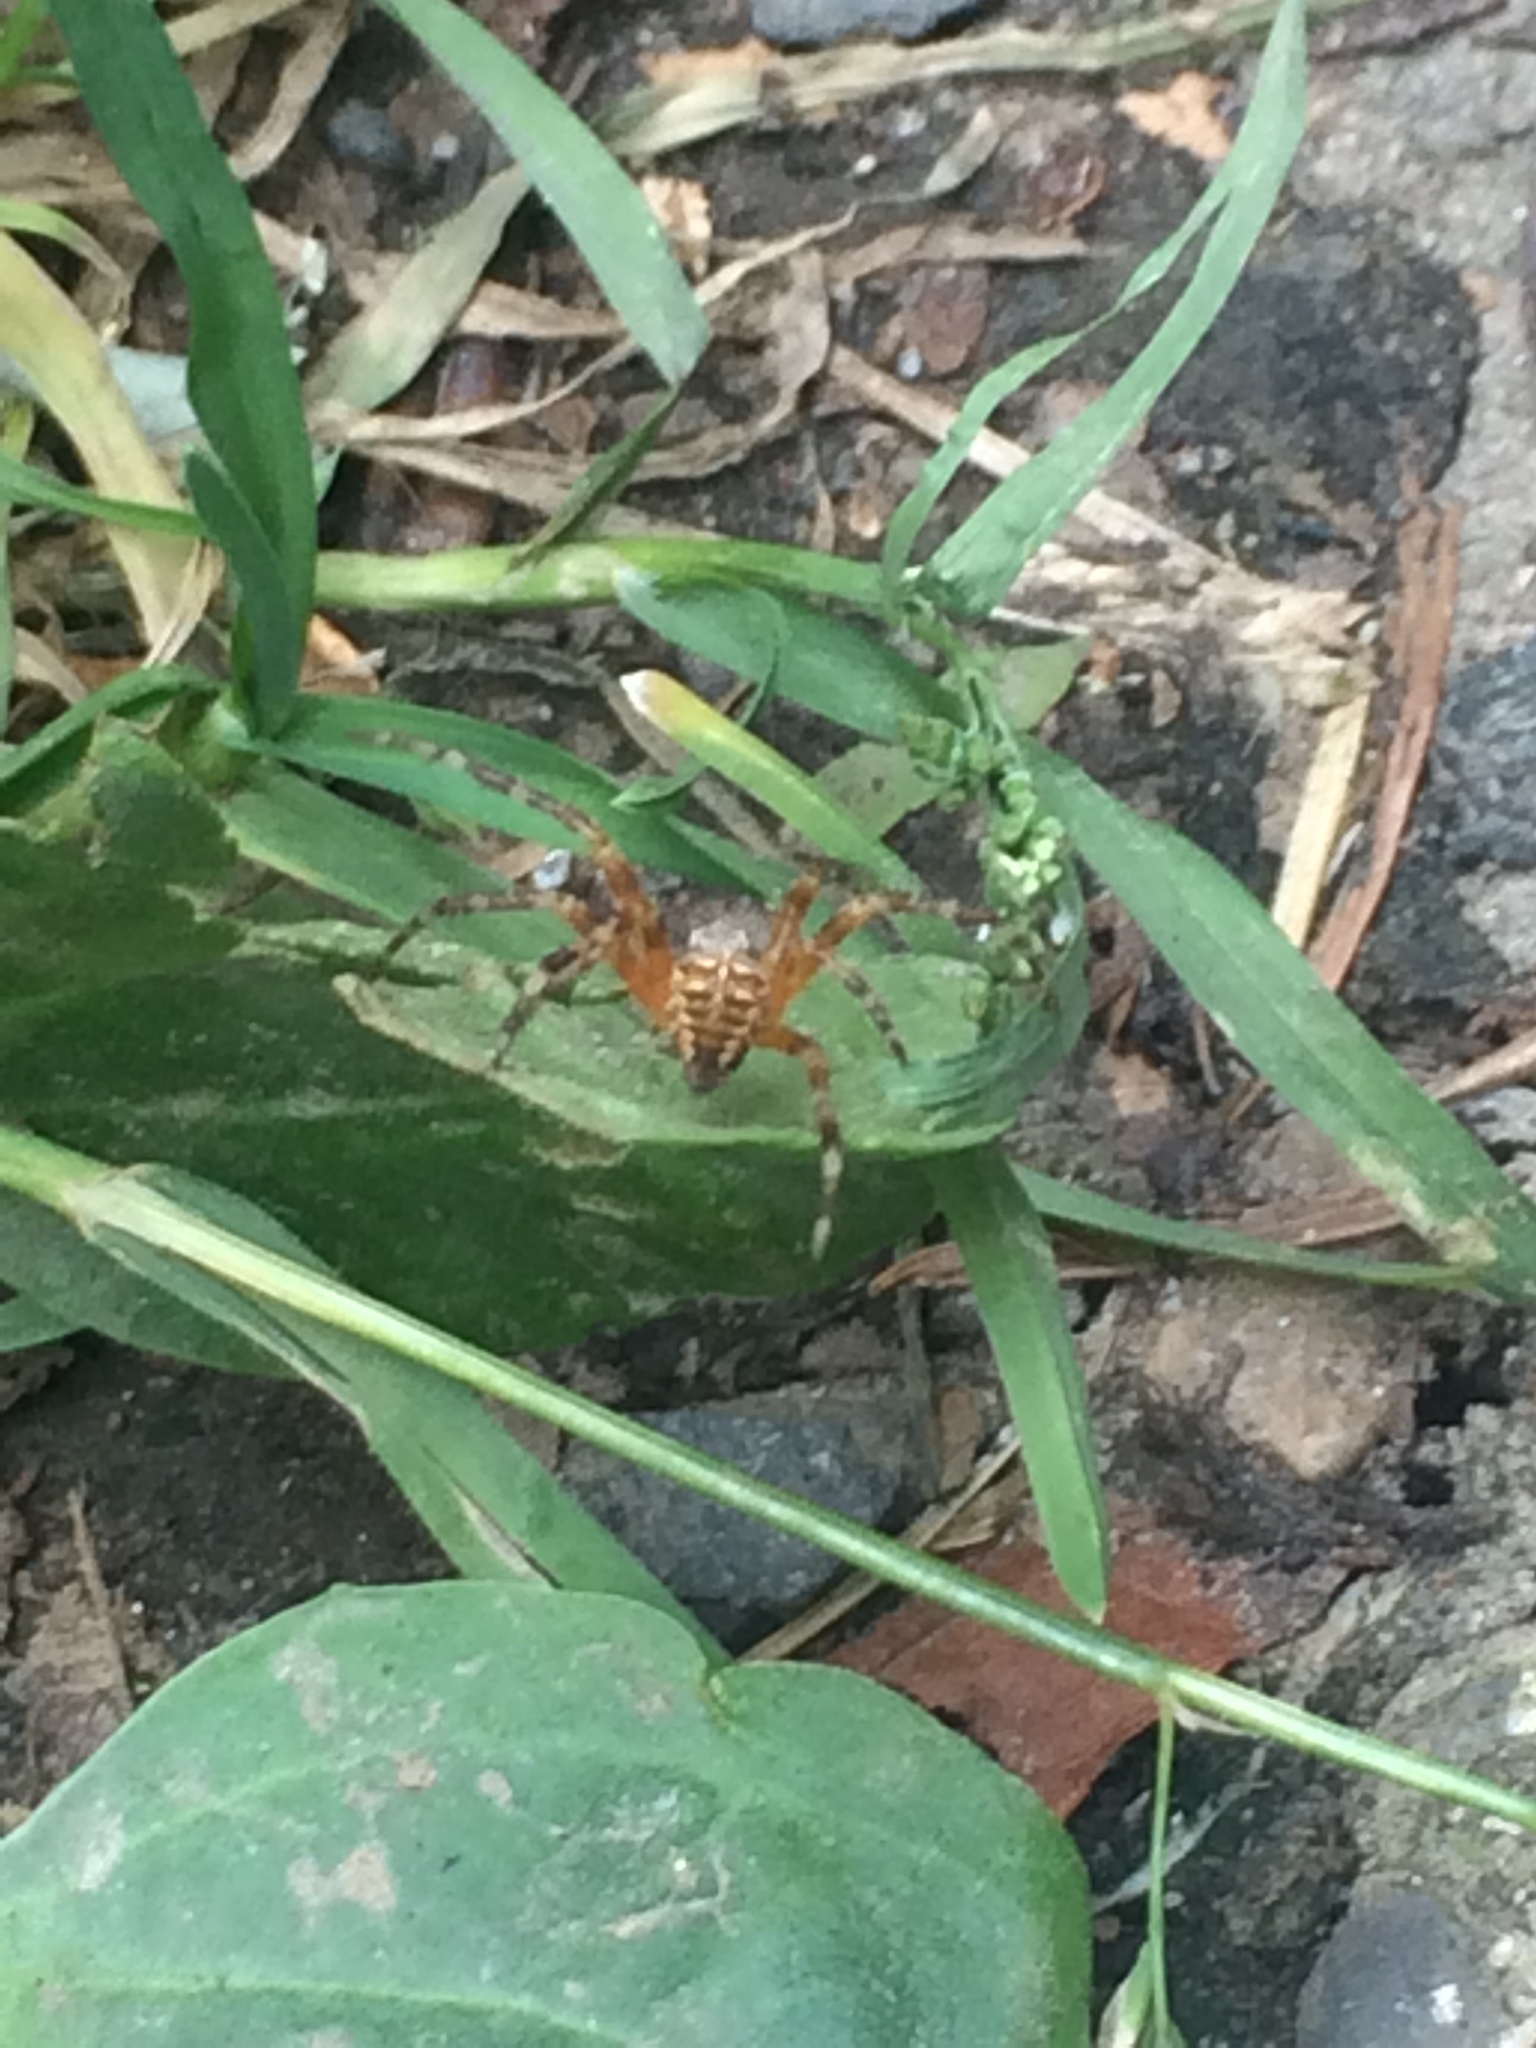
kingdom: Animalia
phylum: Arthropoda
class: Arachnida
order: Araneae
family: Araneidae
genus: Araneus
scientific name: Araneus diadematus
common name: Cross orbweaver
